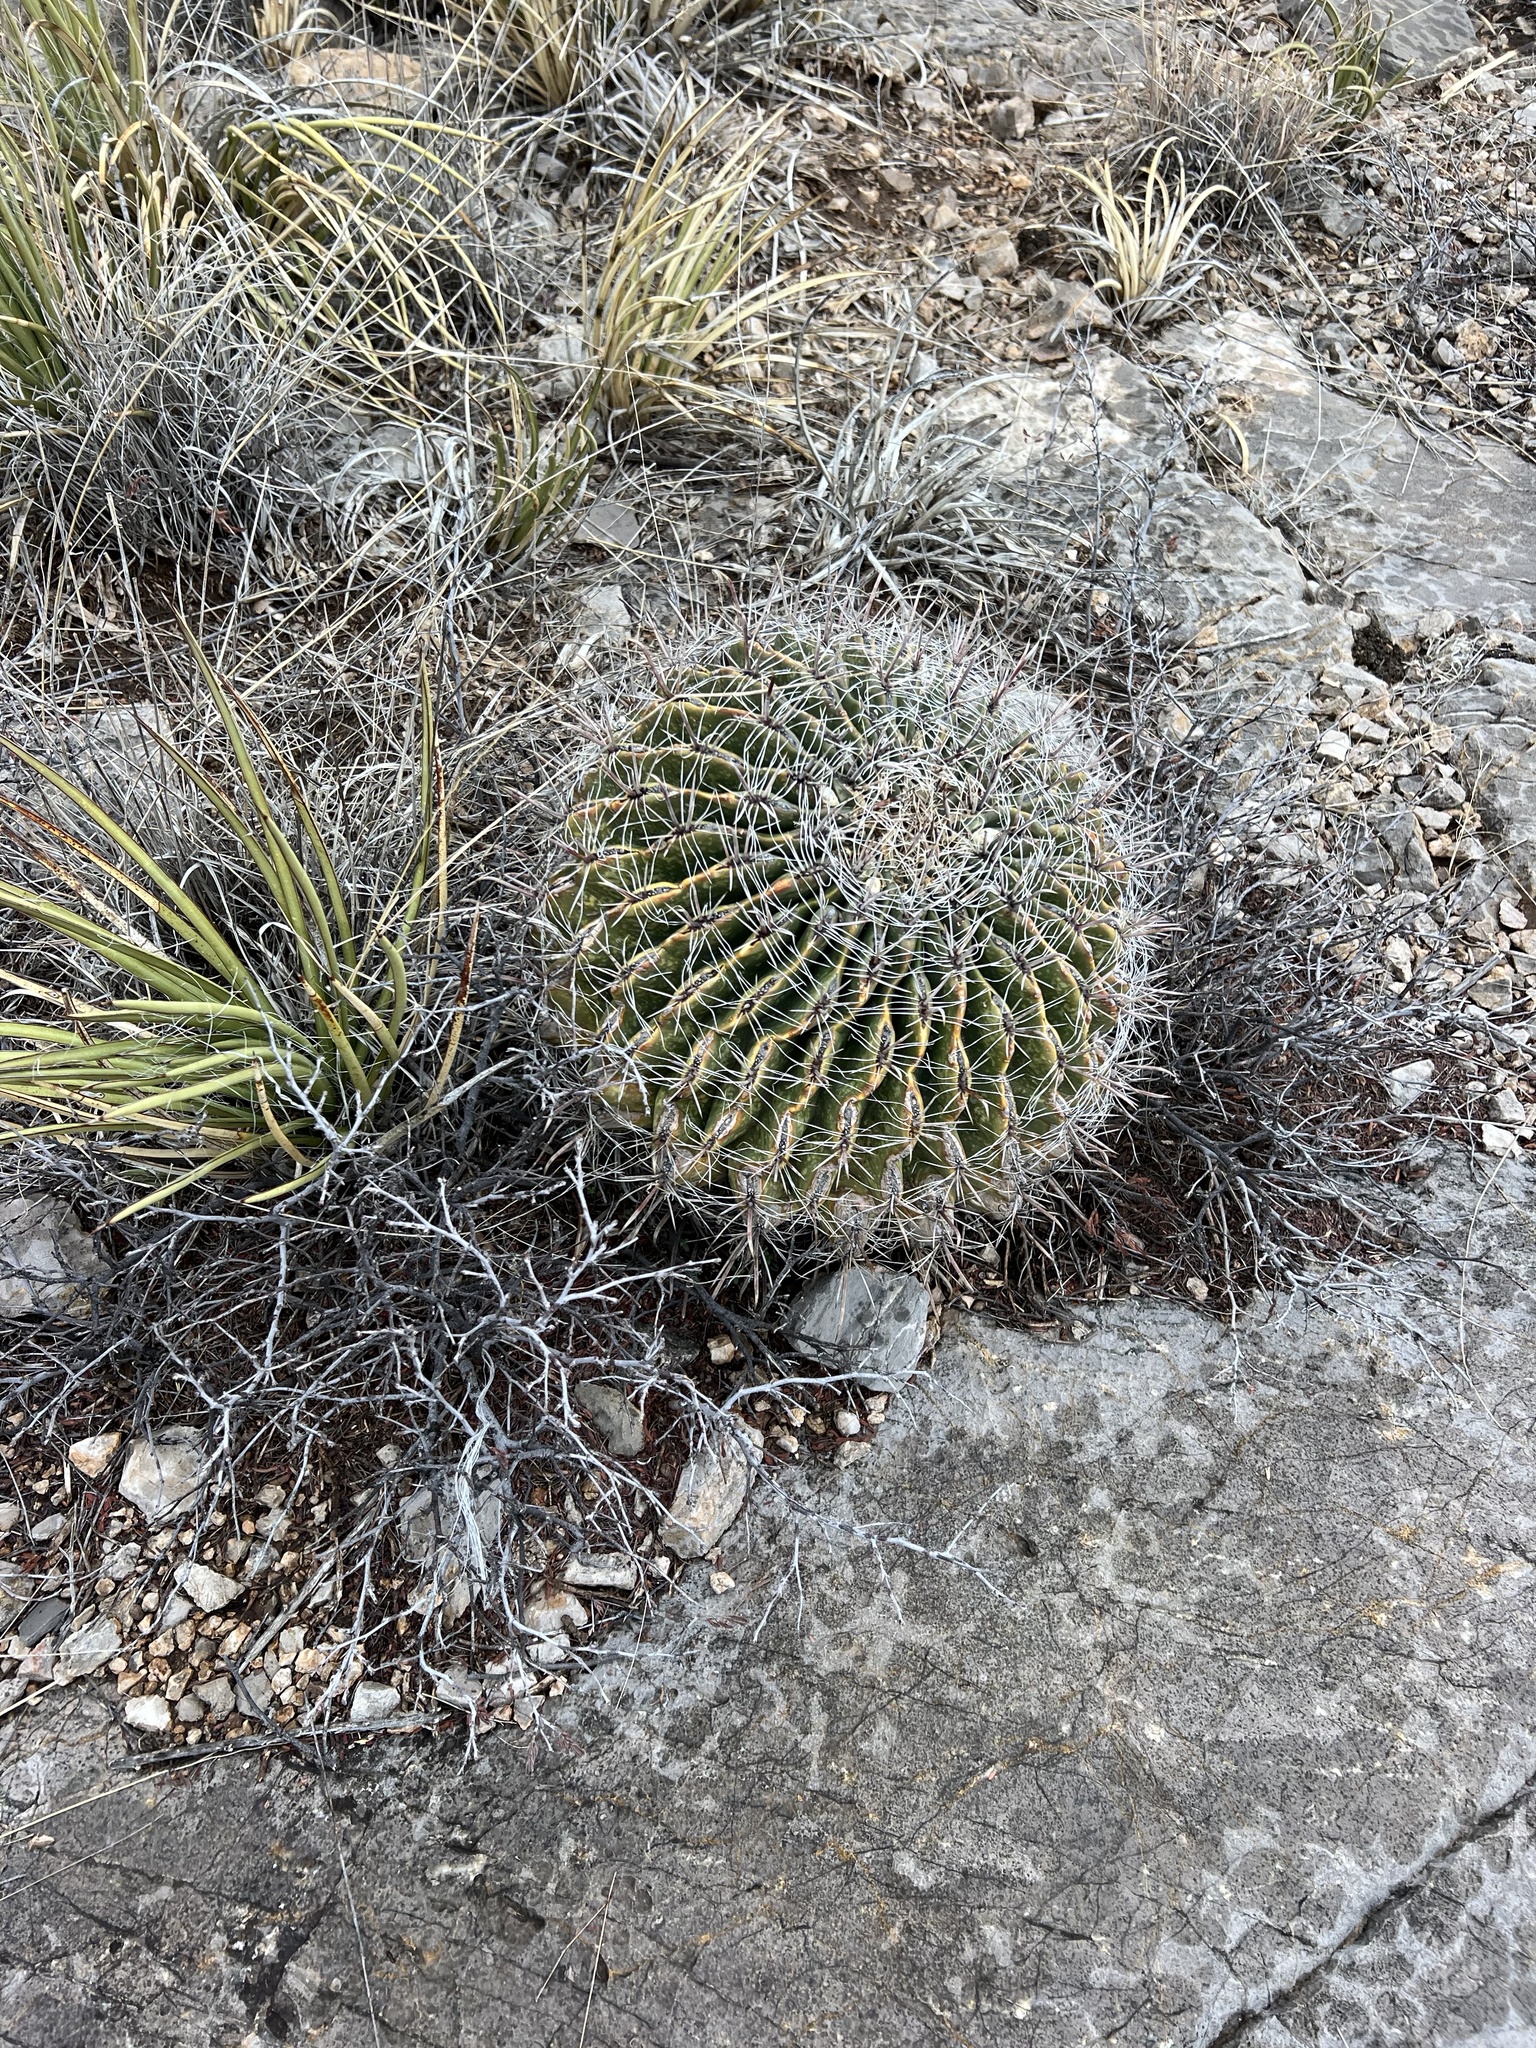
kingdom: Plantae
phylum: Tracheophyta
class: Magnoliopsida
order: Caryophyllales
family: Cactaceae
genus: Ferocactus
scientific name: Ferocactus wislizeni
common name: Candy barrel cactus
